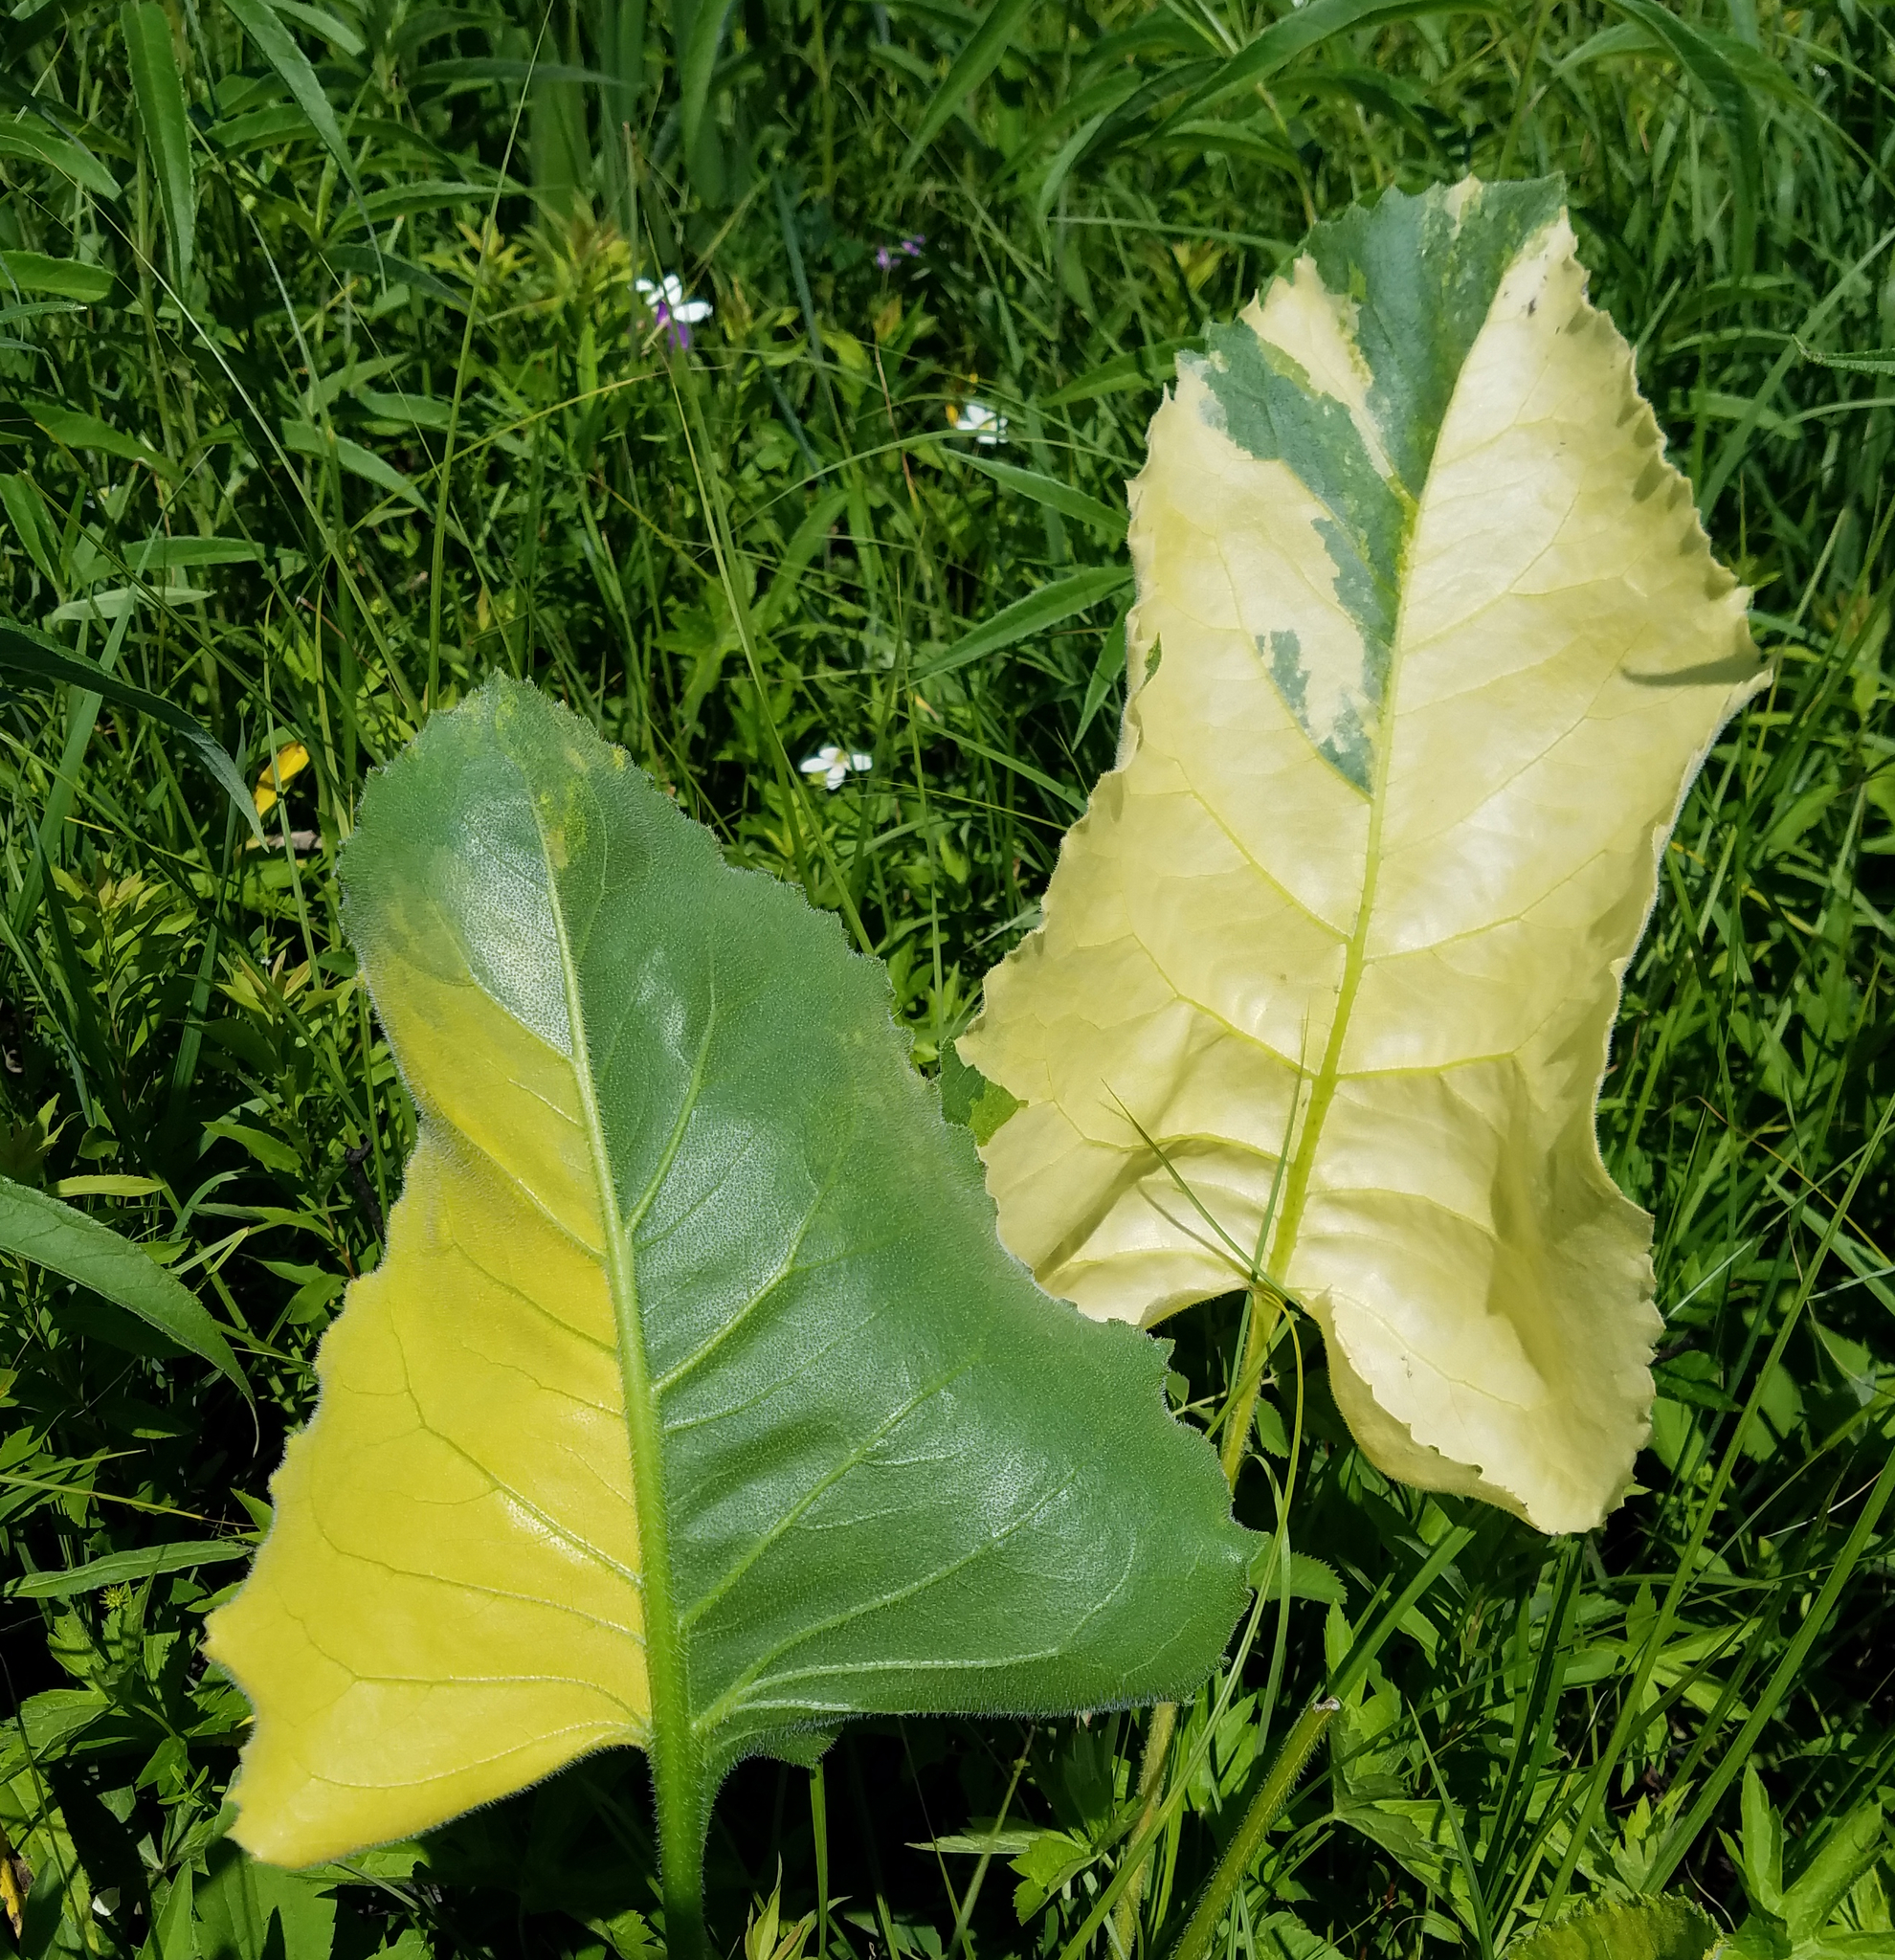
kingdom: Plantae
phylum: Tracheophyta
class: Magnoliopsida
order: Asterales
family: Asteraceae
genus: Silphium
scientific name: Silphium terebinthinaceum
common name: Basal-leaf rosinweed
